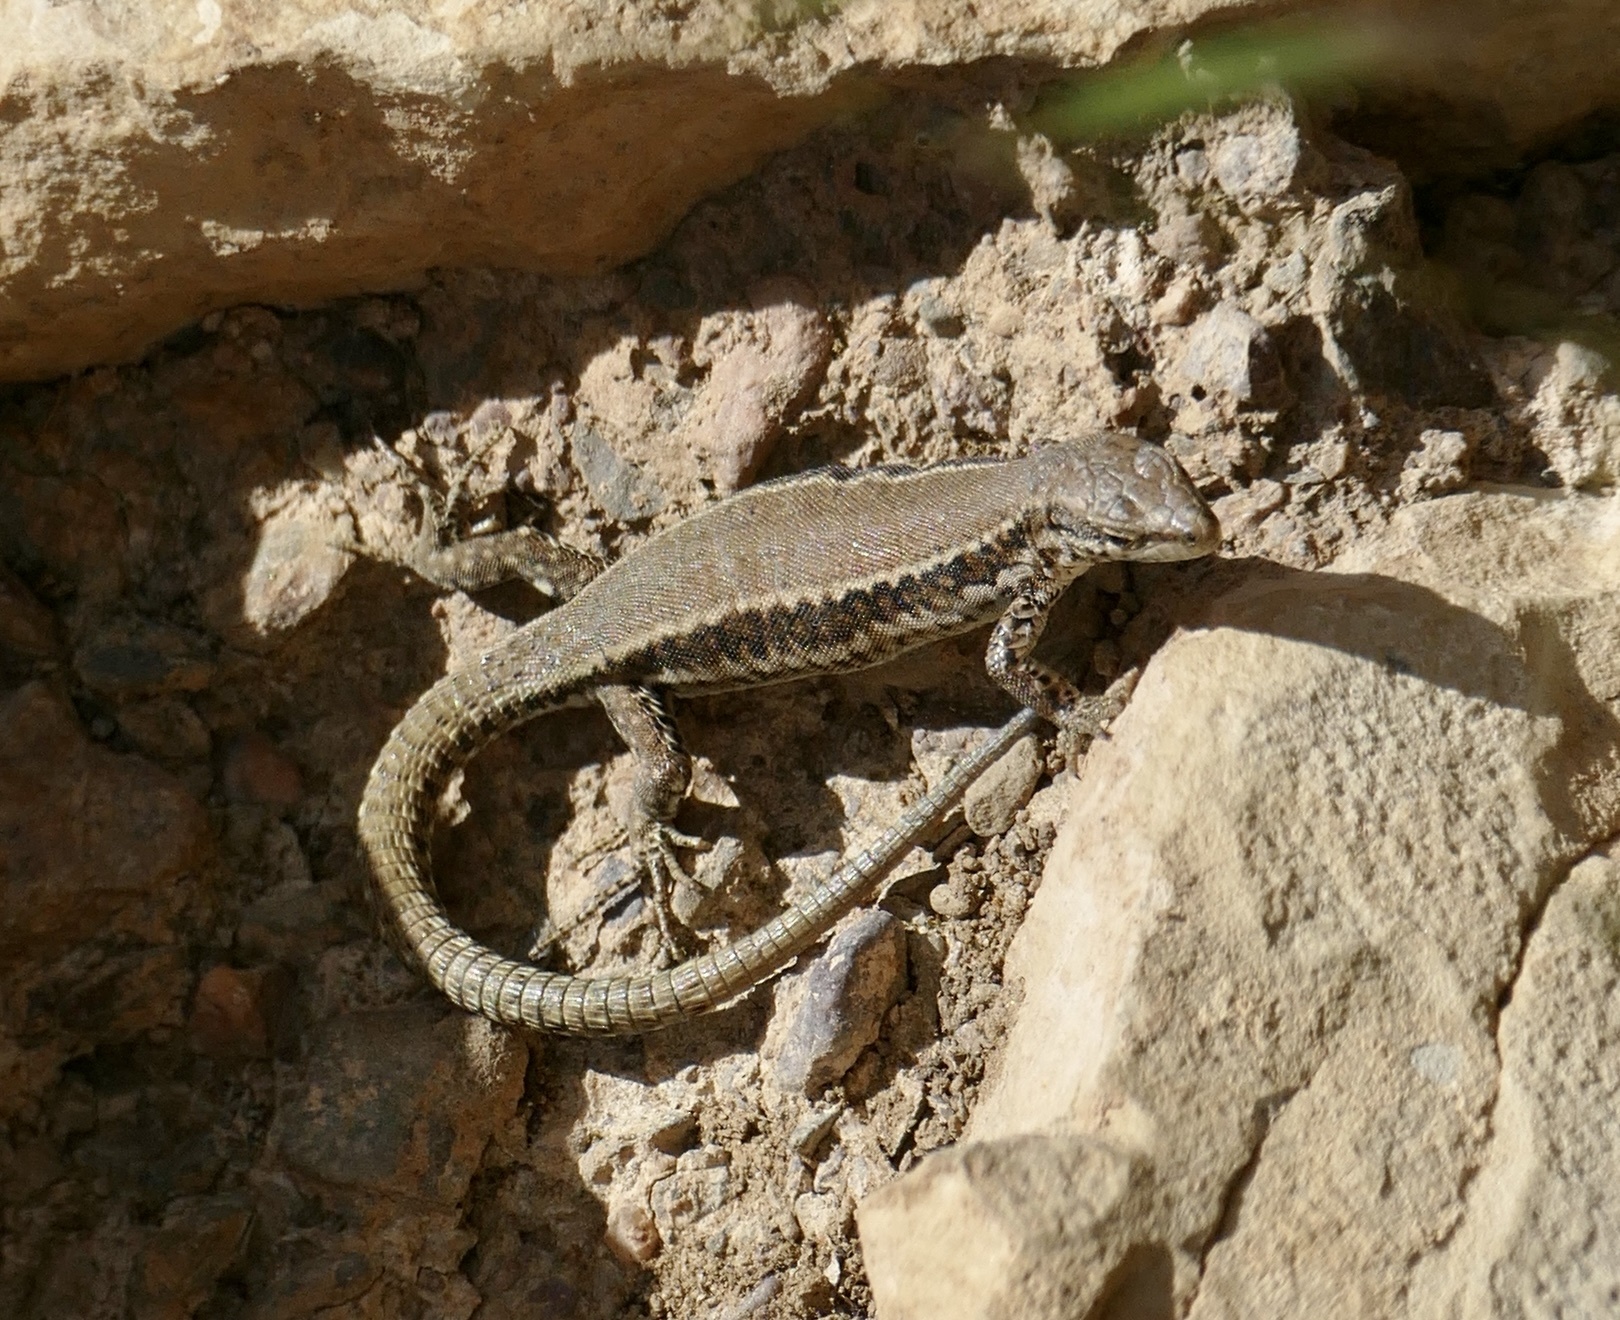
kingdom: Animalia
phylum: Chordata
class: Squamata
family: Lacertidae
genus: Podarcis
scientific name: Podarcis vaucheri
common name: Vaucher's wall lizard
